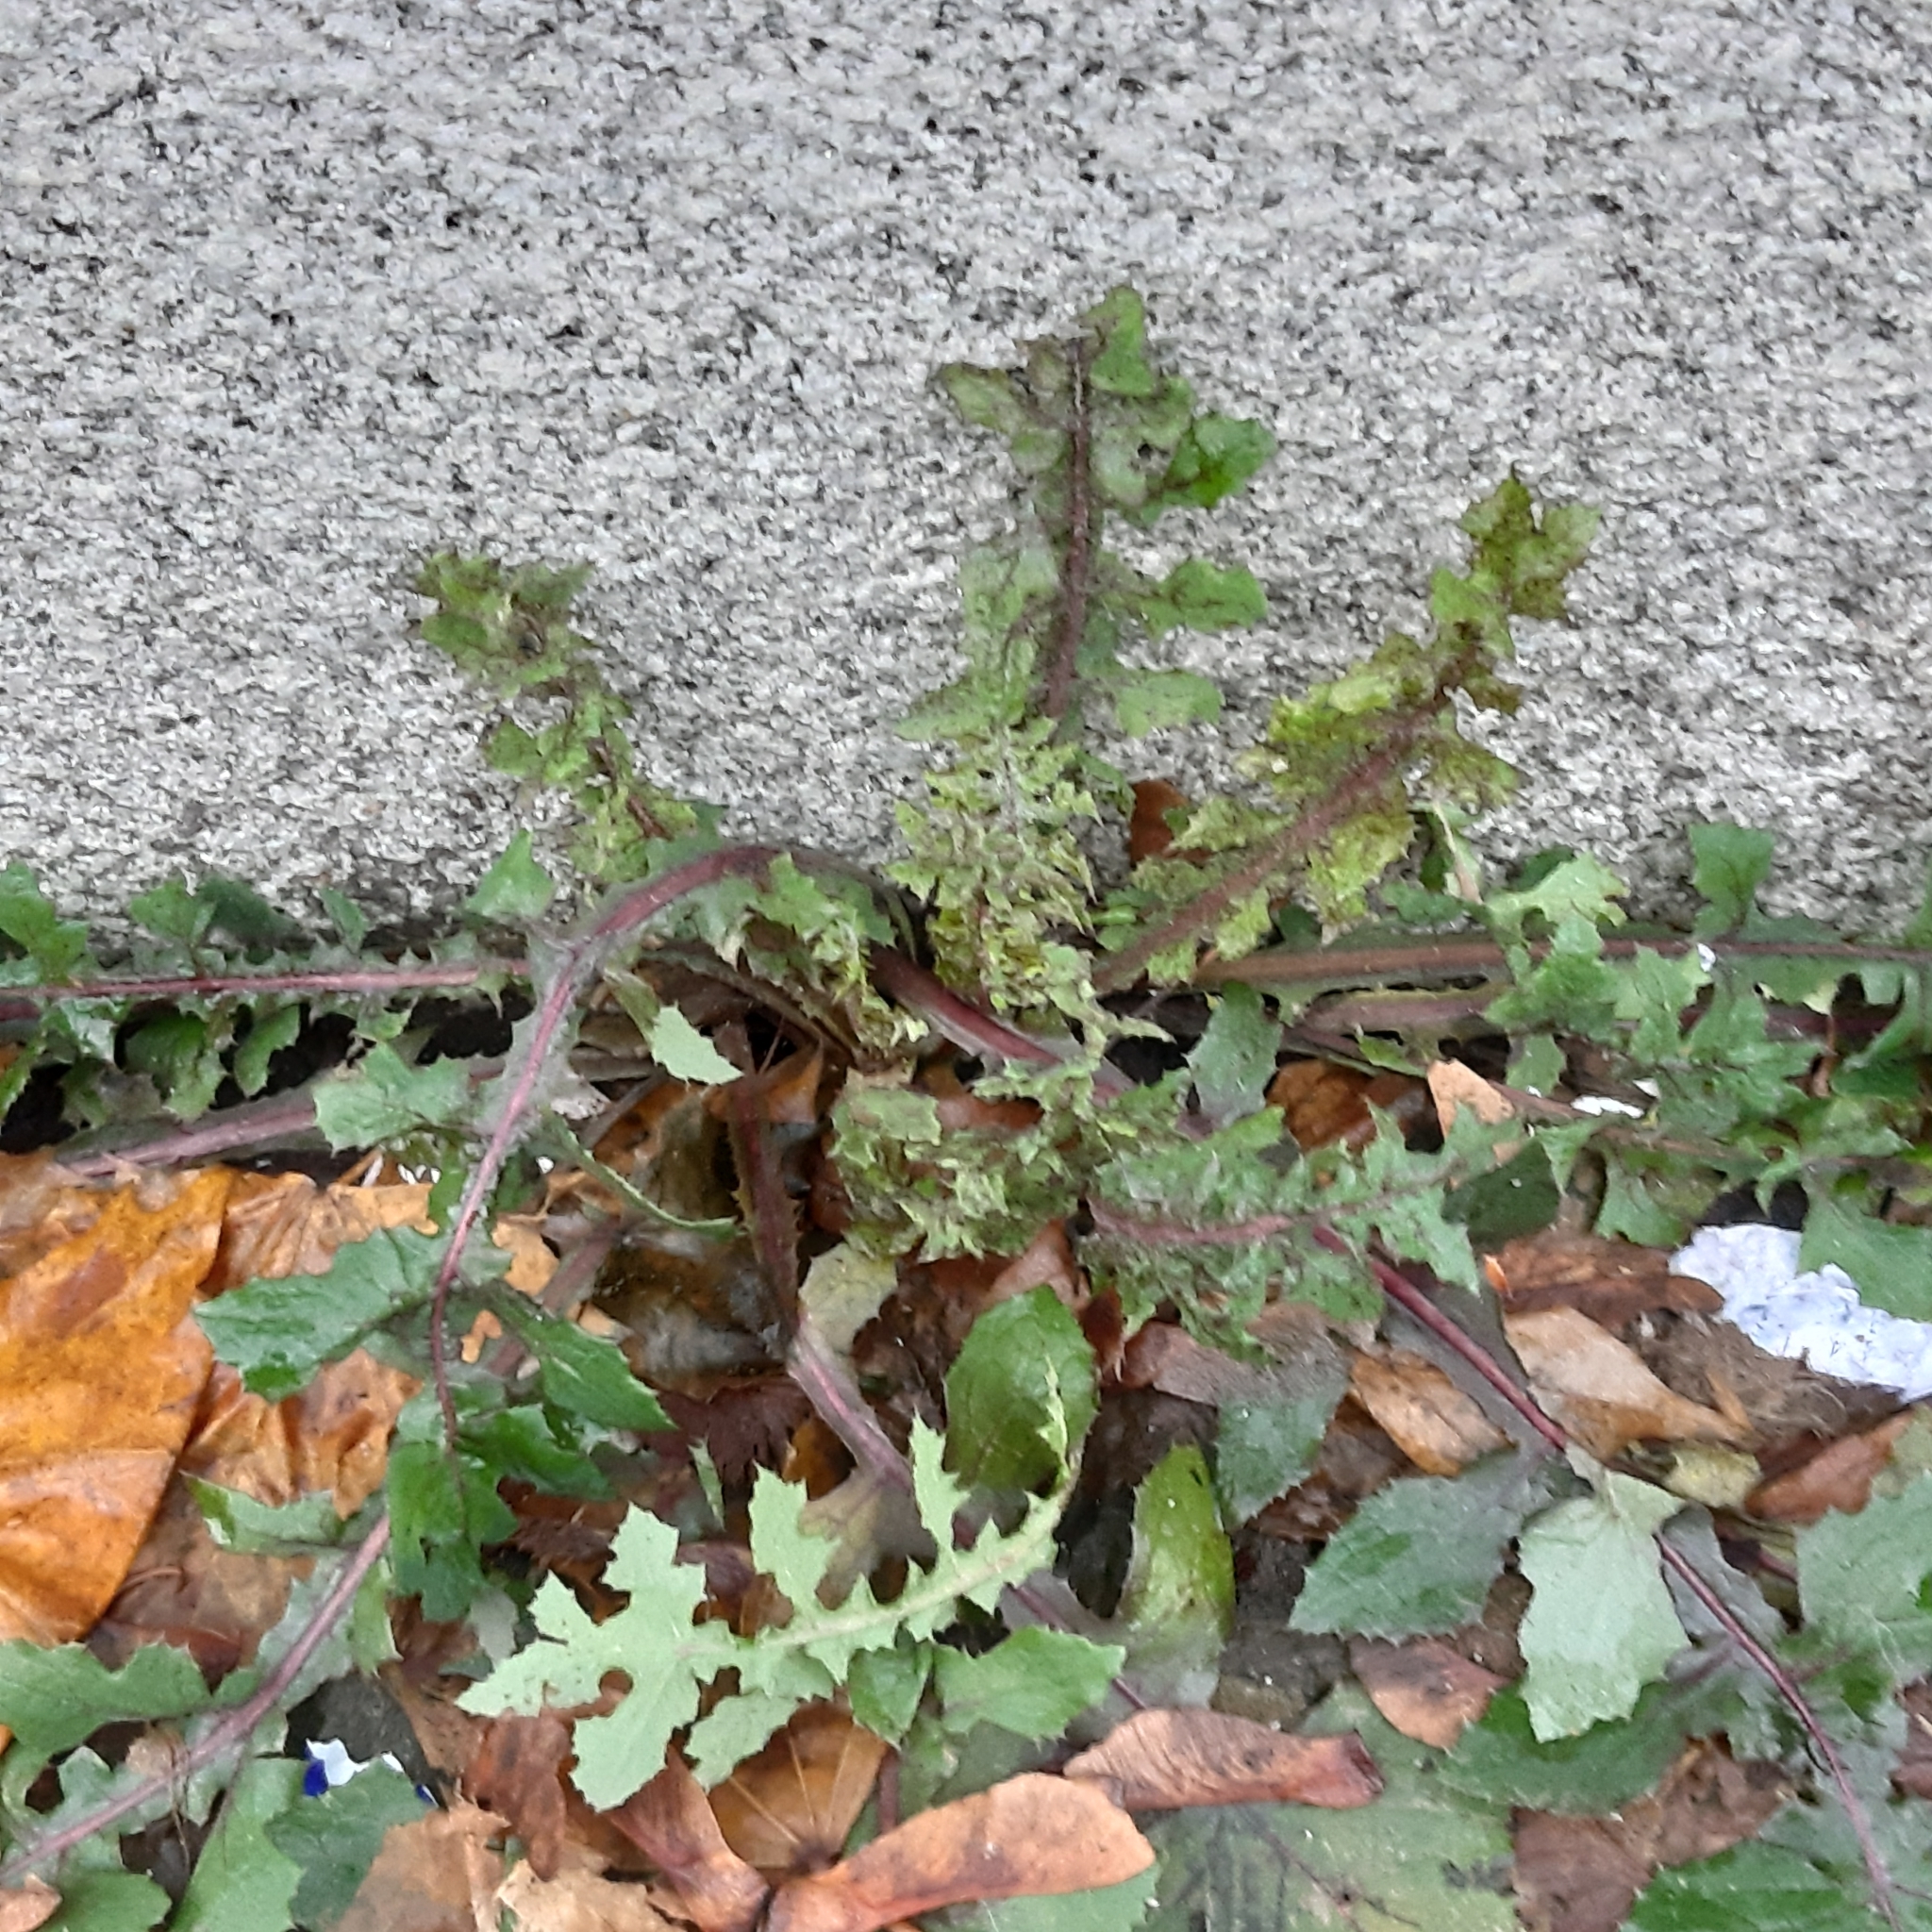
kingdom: Plantae
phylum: Tracheophyta
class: Magnoliopsida
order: Asterales
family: Asteraceae
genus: Sonchus
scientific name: Sonchus oleraceus
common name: Common sowthistle
